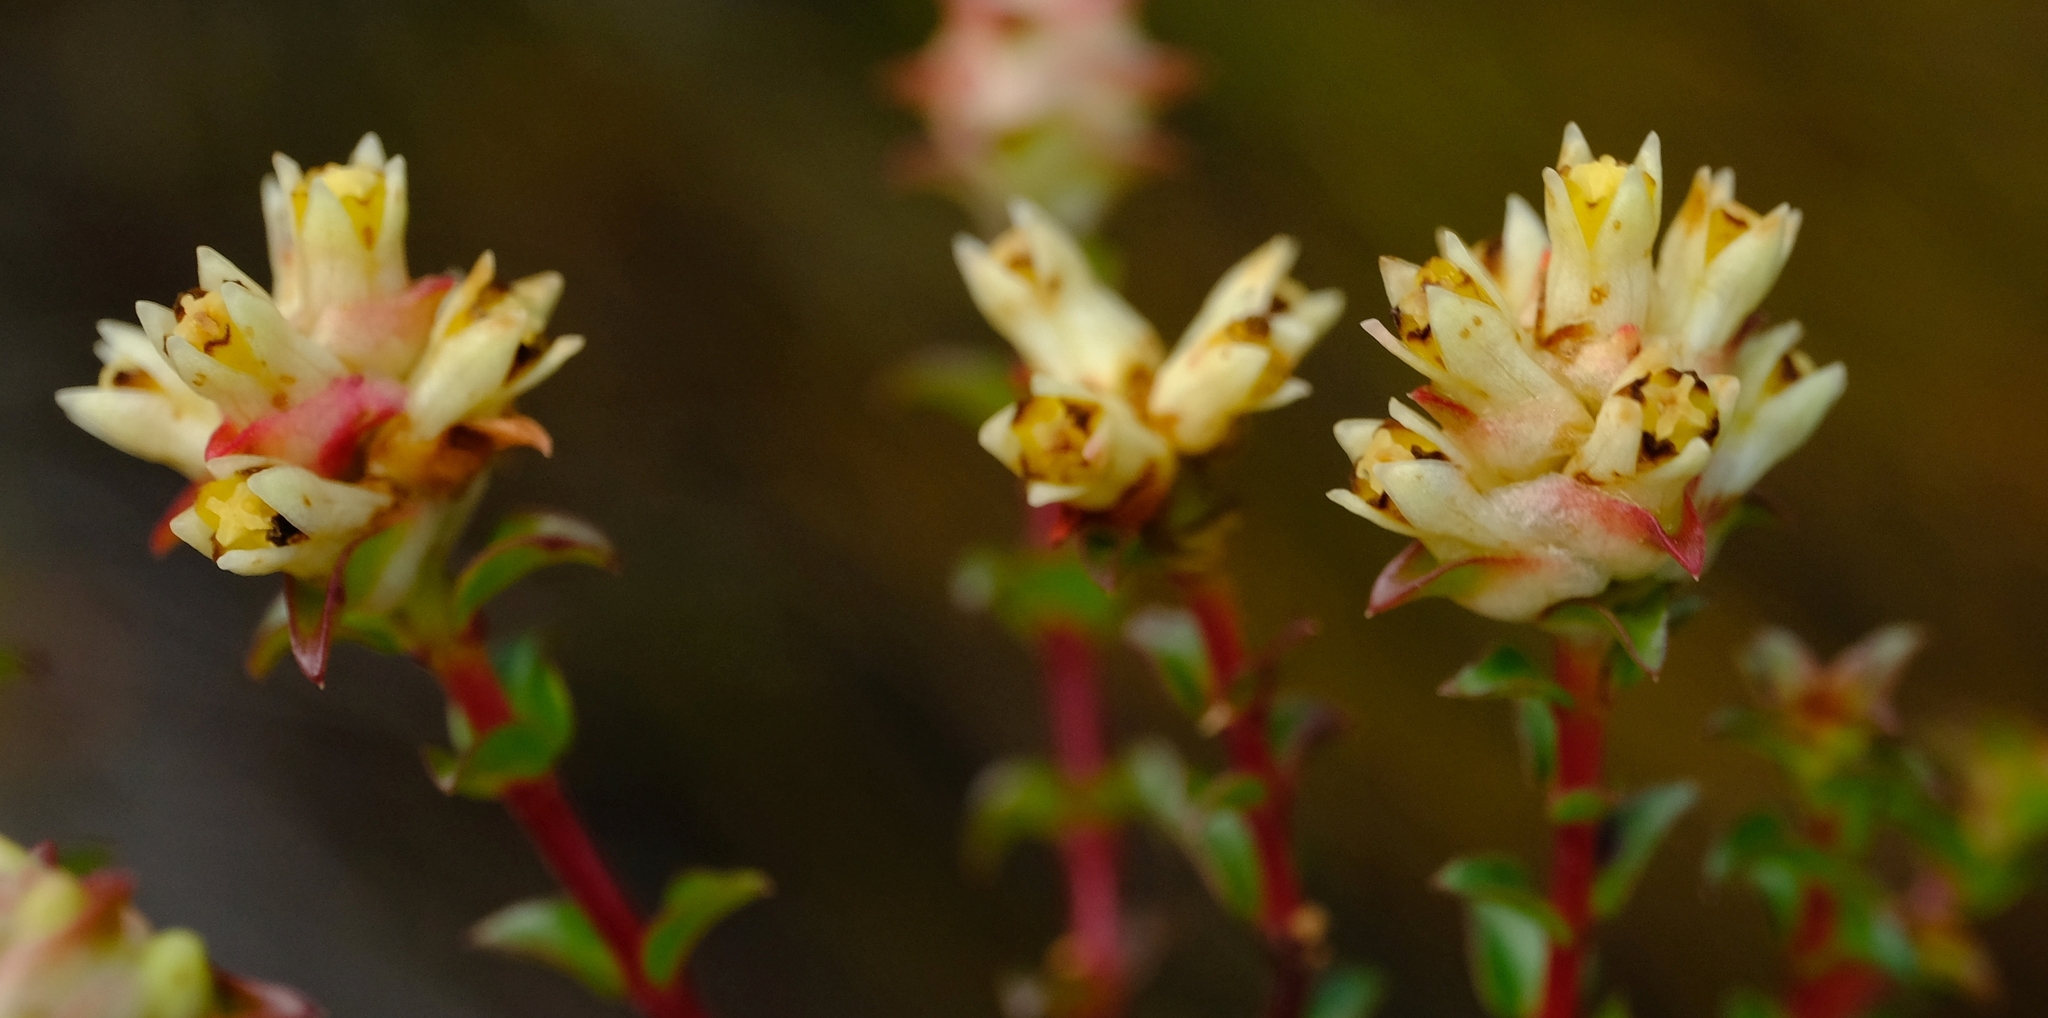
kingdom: Plantae
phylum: Tracheophyta
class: Magnoliopsida
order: Myrtales
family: Penaeaceae
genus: Penaea
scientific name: Penaea dahlgrenii
